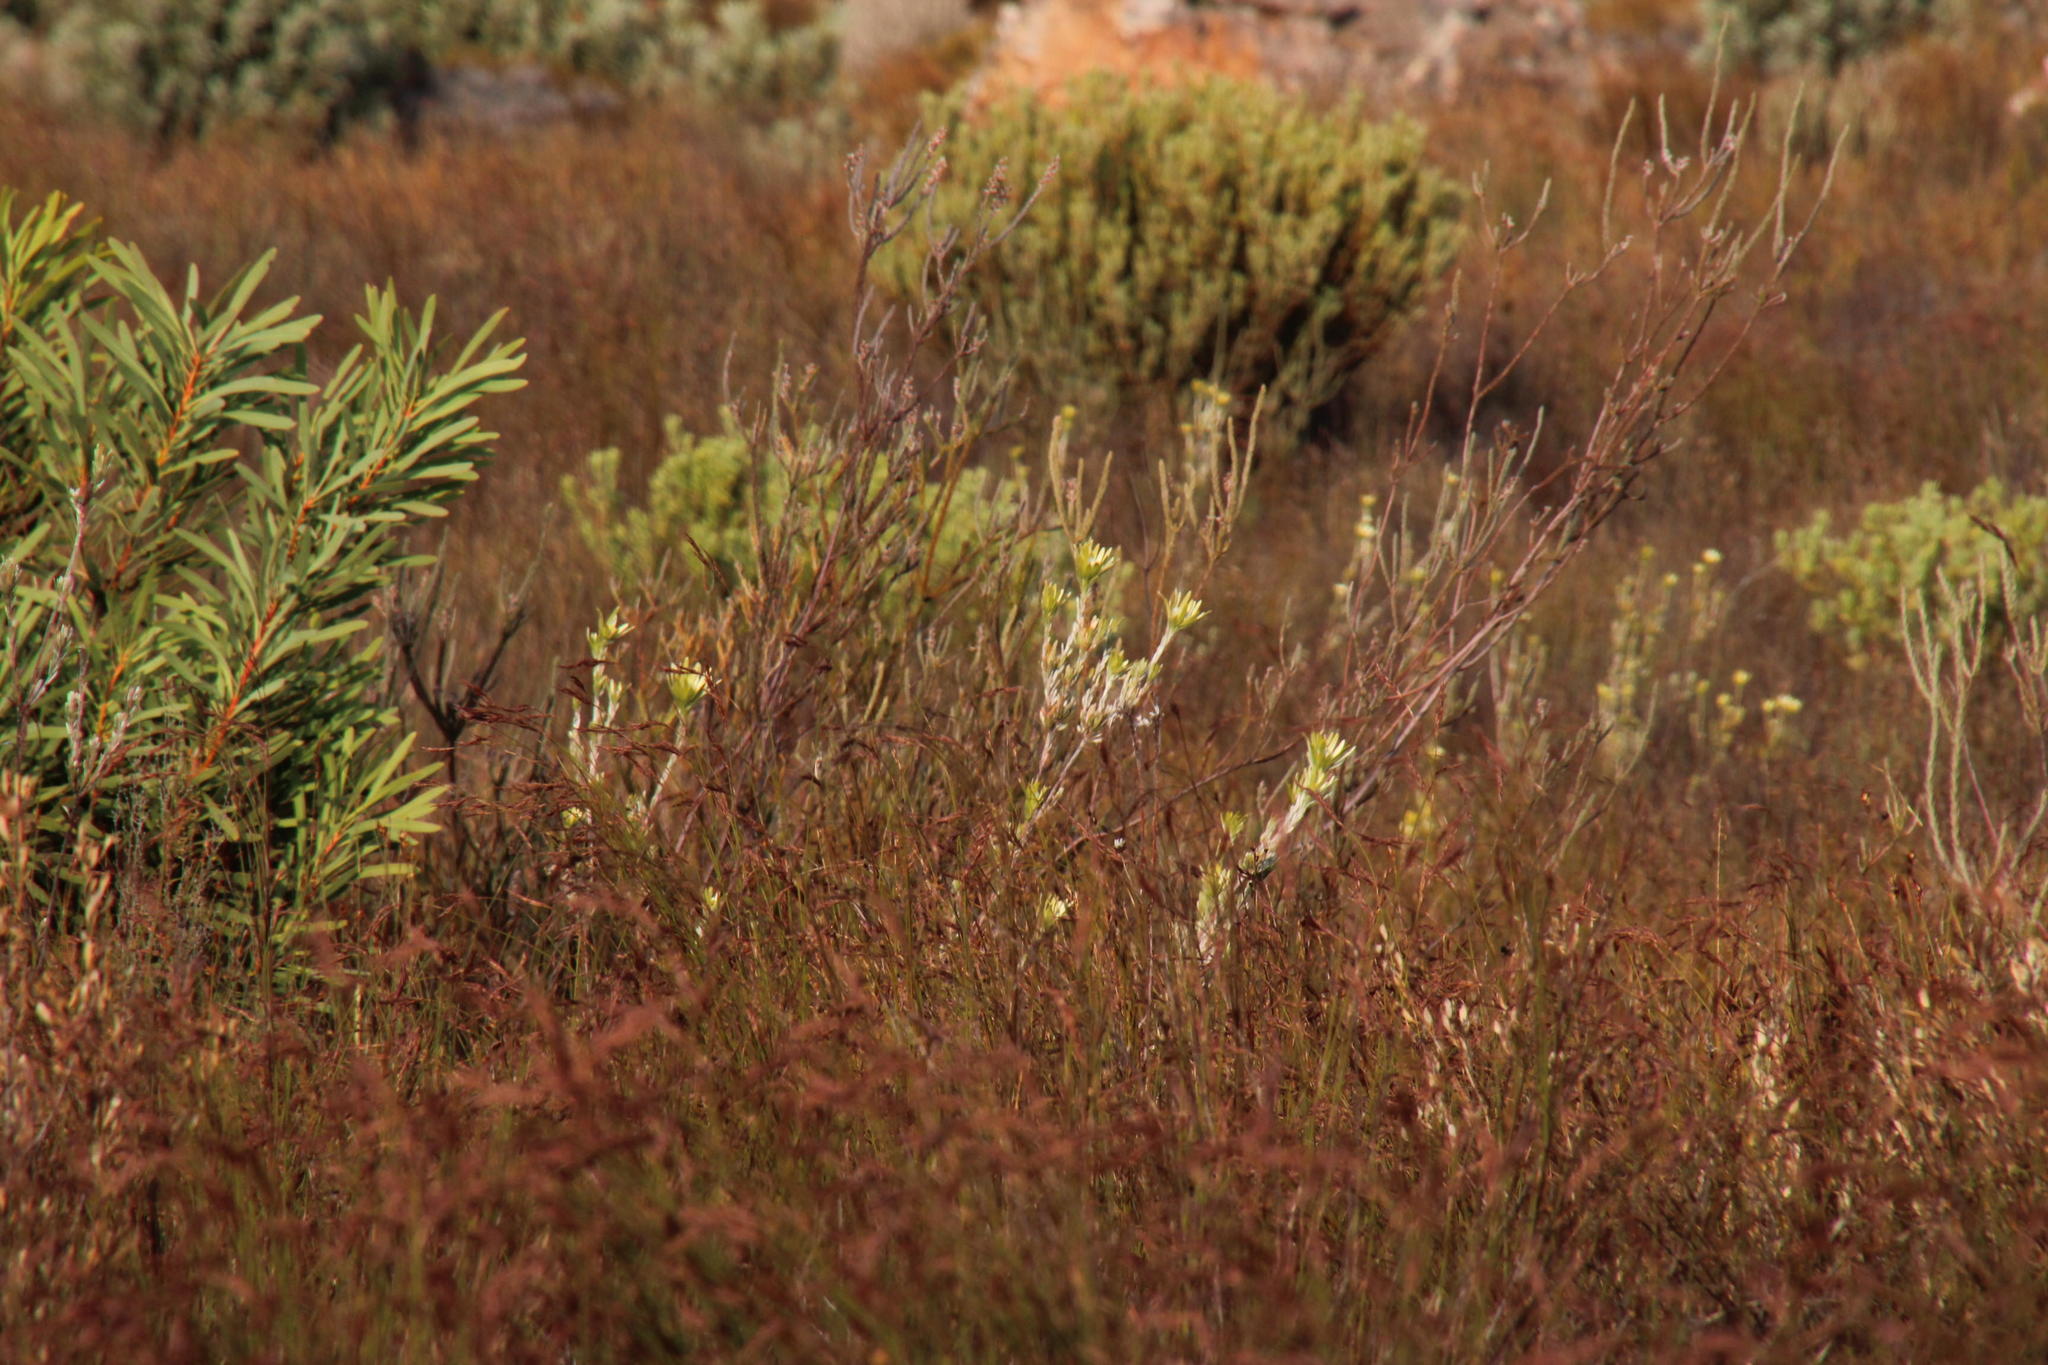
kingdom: Plantae
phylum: Tracheophyta
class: Magnoliopsida
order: Proteales
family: Proteaceae
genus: Leucadendron
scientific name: Leucadendron nitidum
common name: Bokkeveld conebush
